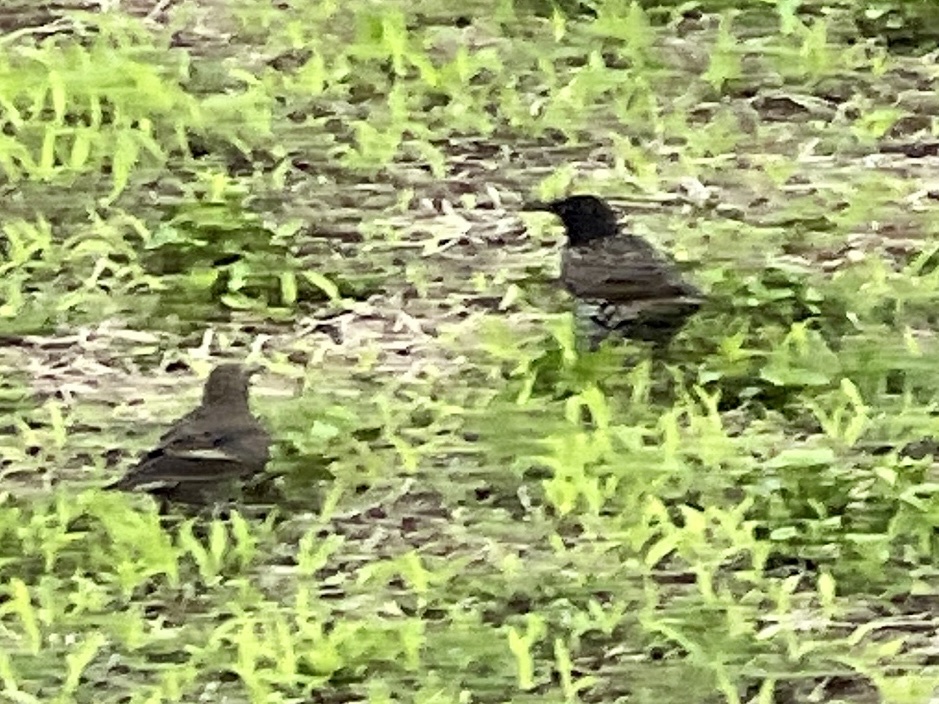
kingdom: Animalia
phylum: Chordata
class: Aves
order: Passeriformes
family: Sturnidae
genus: Sturnus
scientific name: Sturnus vulgaris
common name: Common starling
